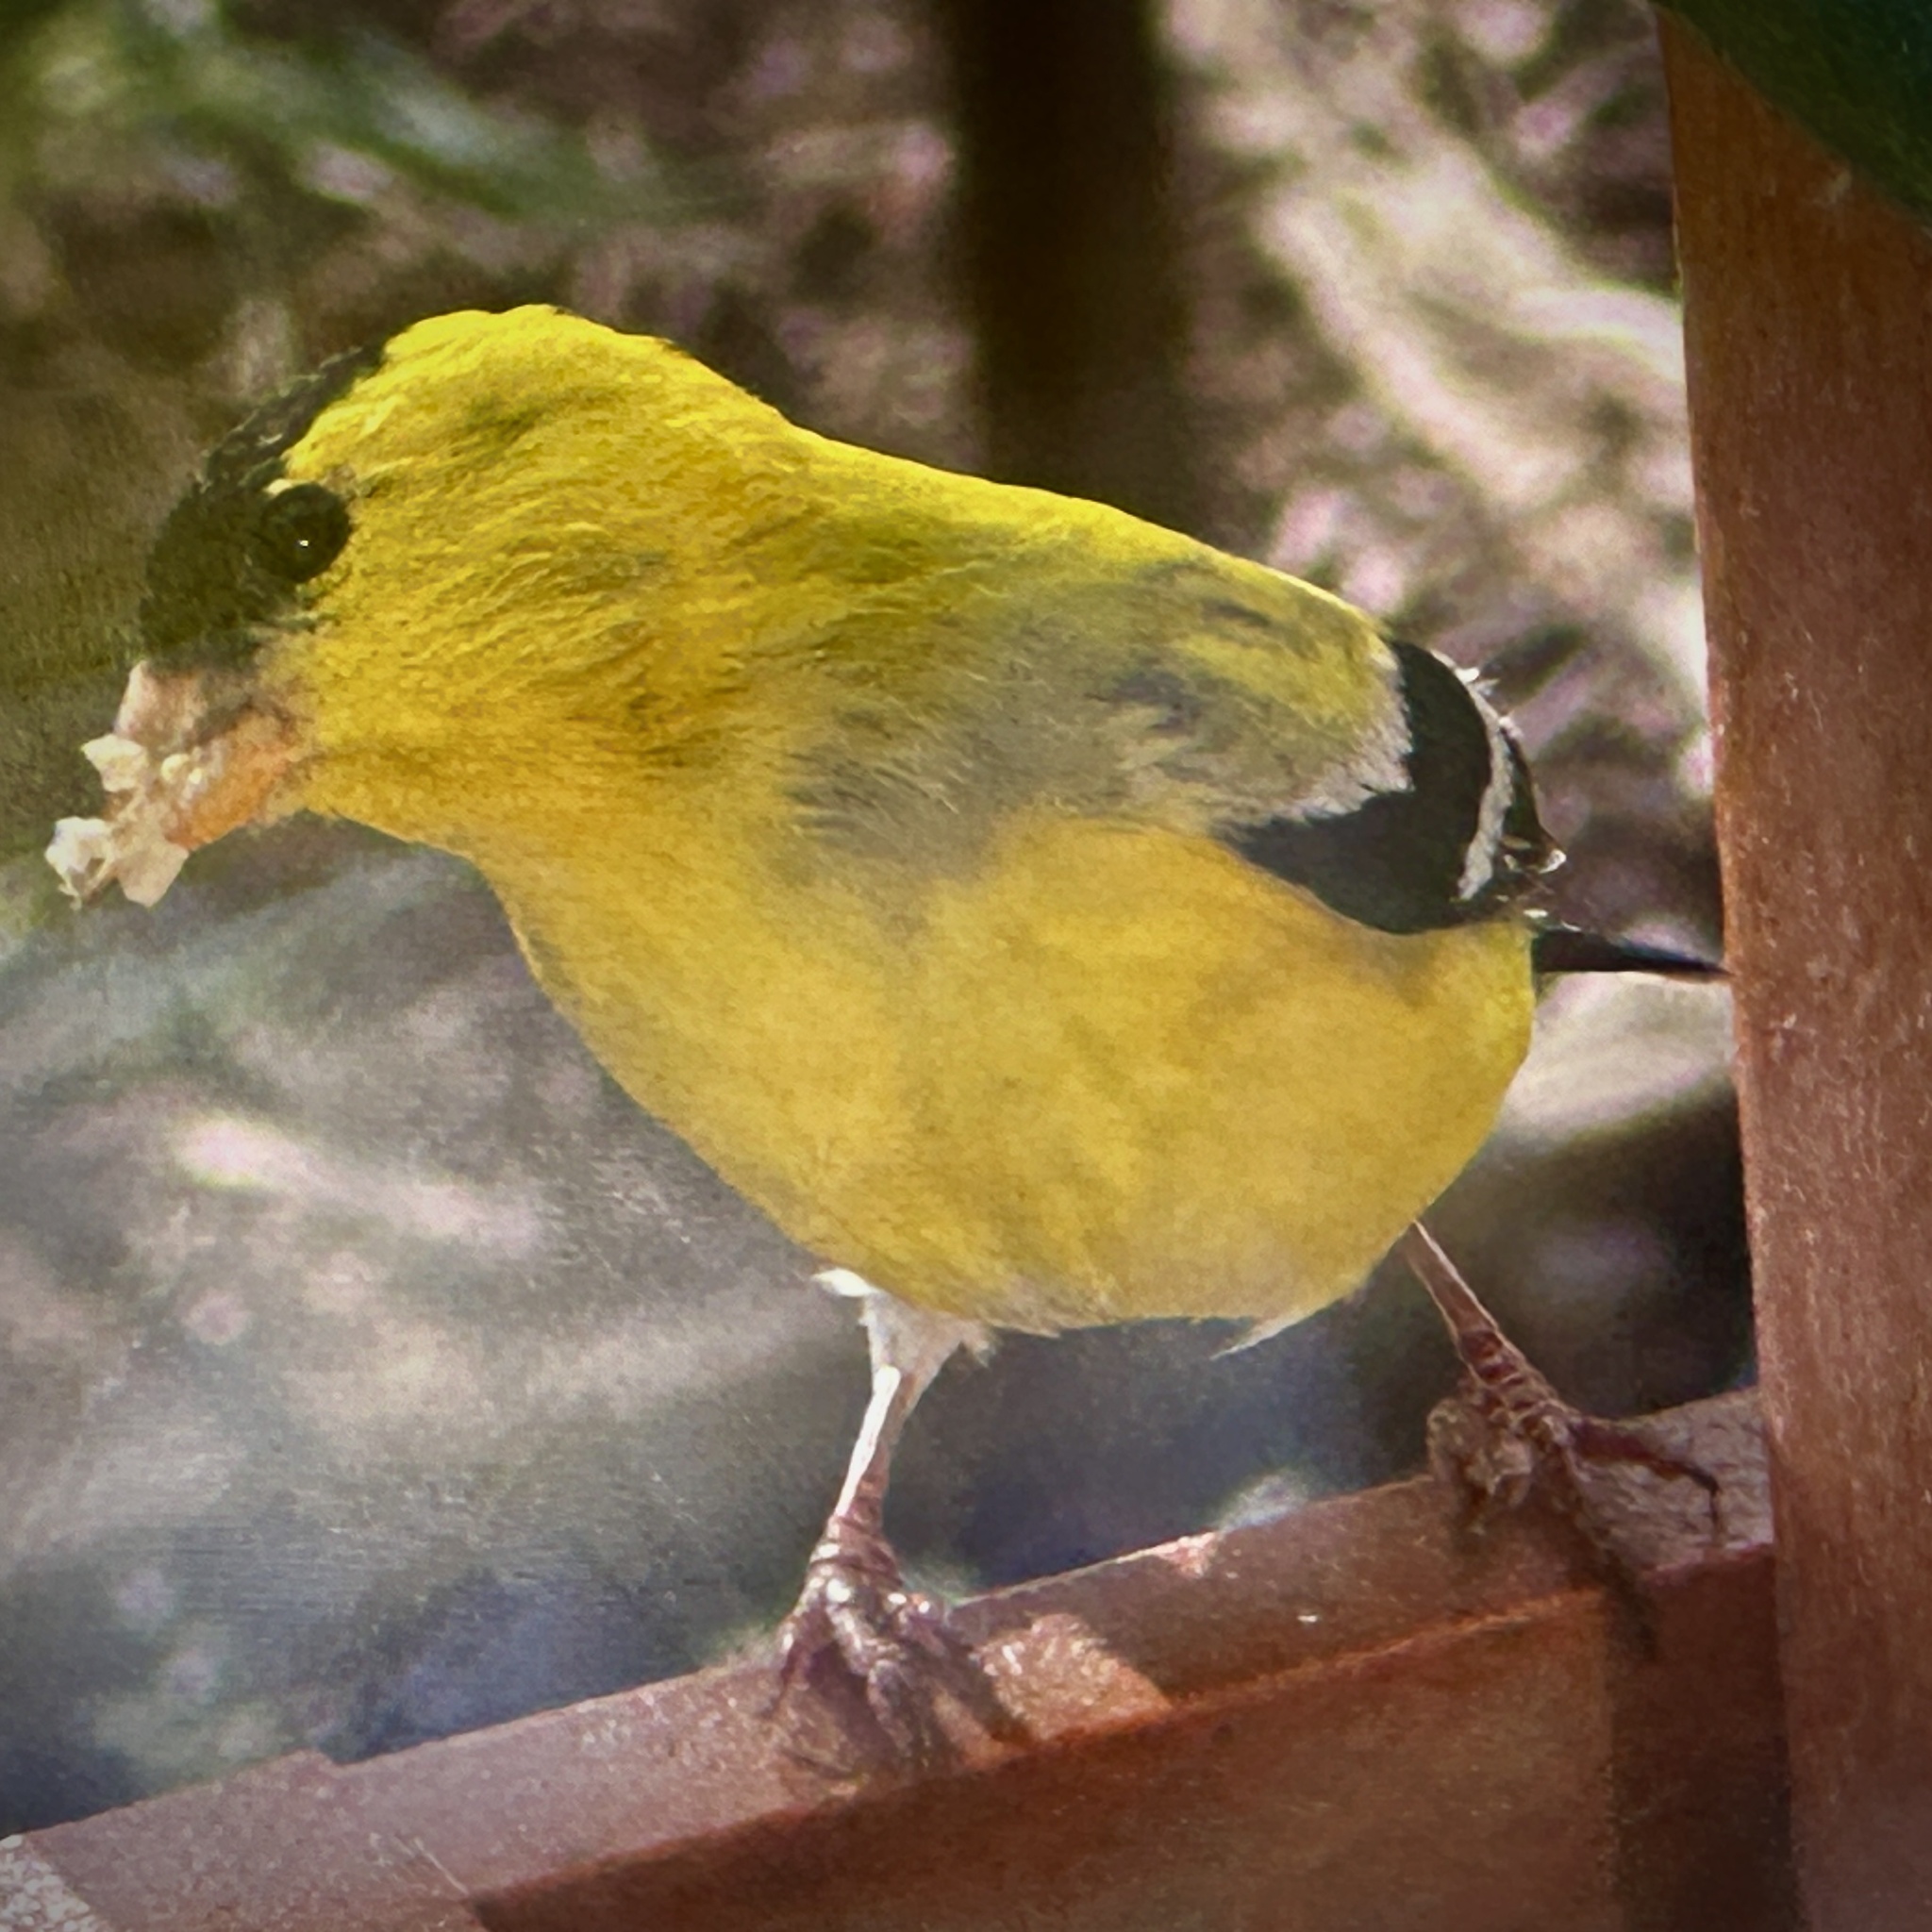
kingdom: Animalia
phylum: Chordata
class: Aves
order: Passeriformes
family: Fringillidae
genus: Spinus
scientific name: Spinus tristis
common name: American goldfinch
